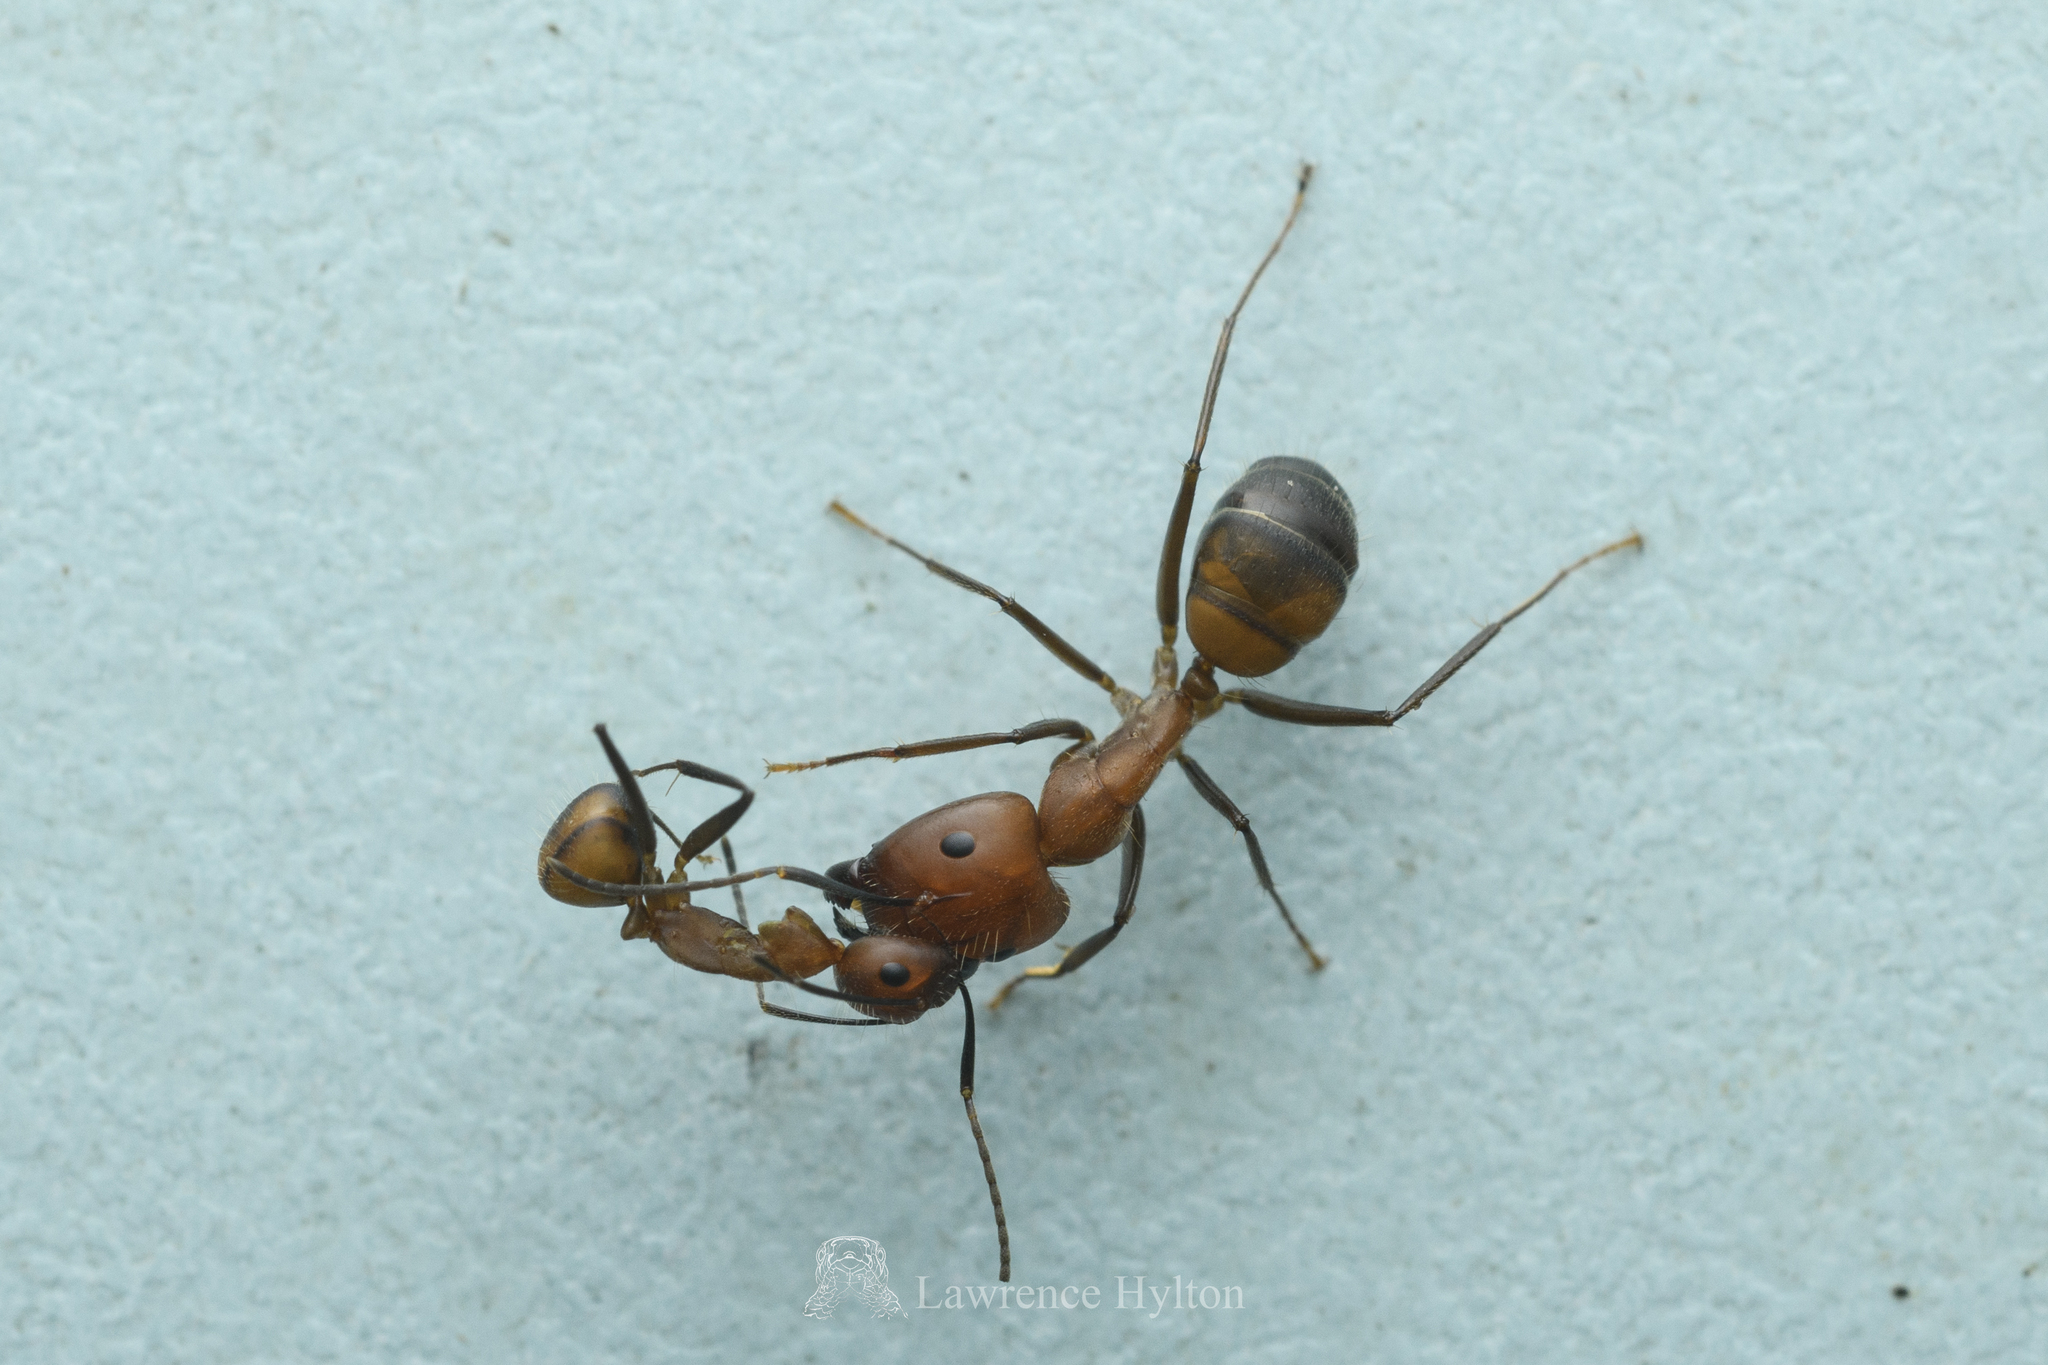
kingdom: Animalia
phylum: Arthropoda
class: Insecta
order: Hymenoptera
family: Formicidae
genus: Camponotus
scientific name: Camponotus nicobarensis
